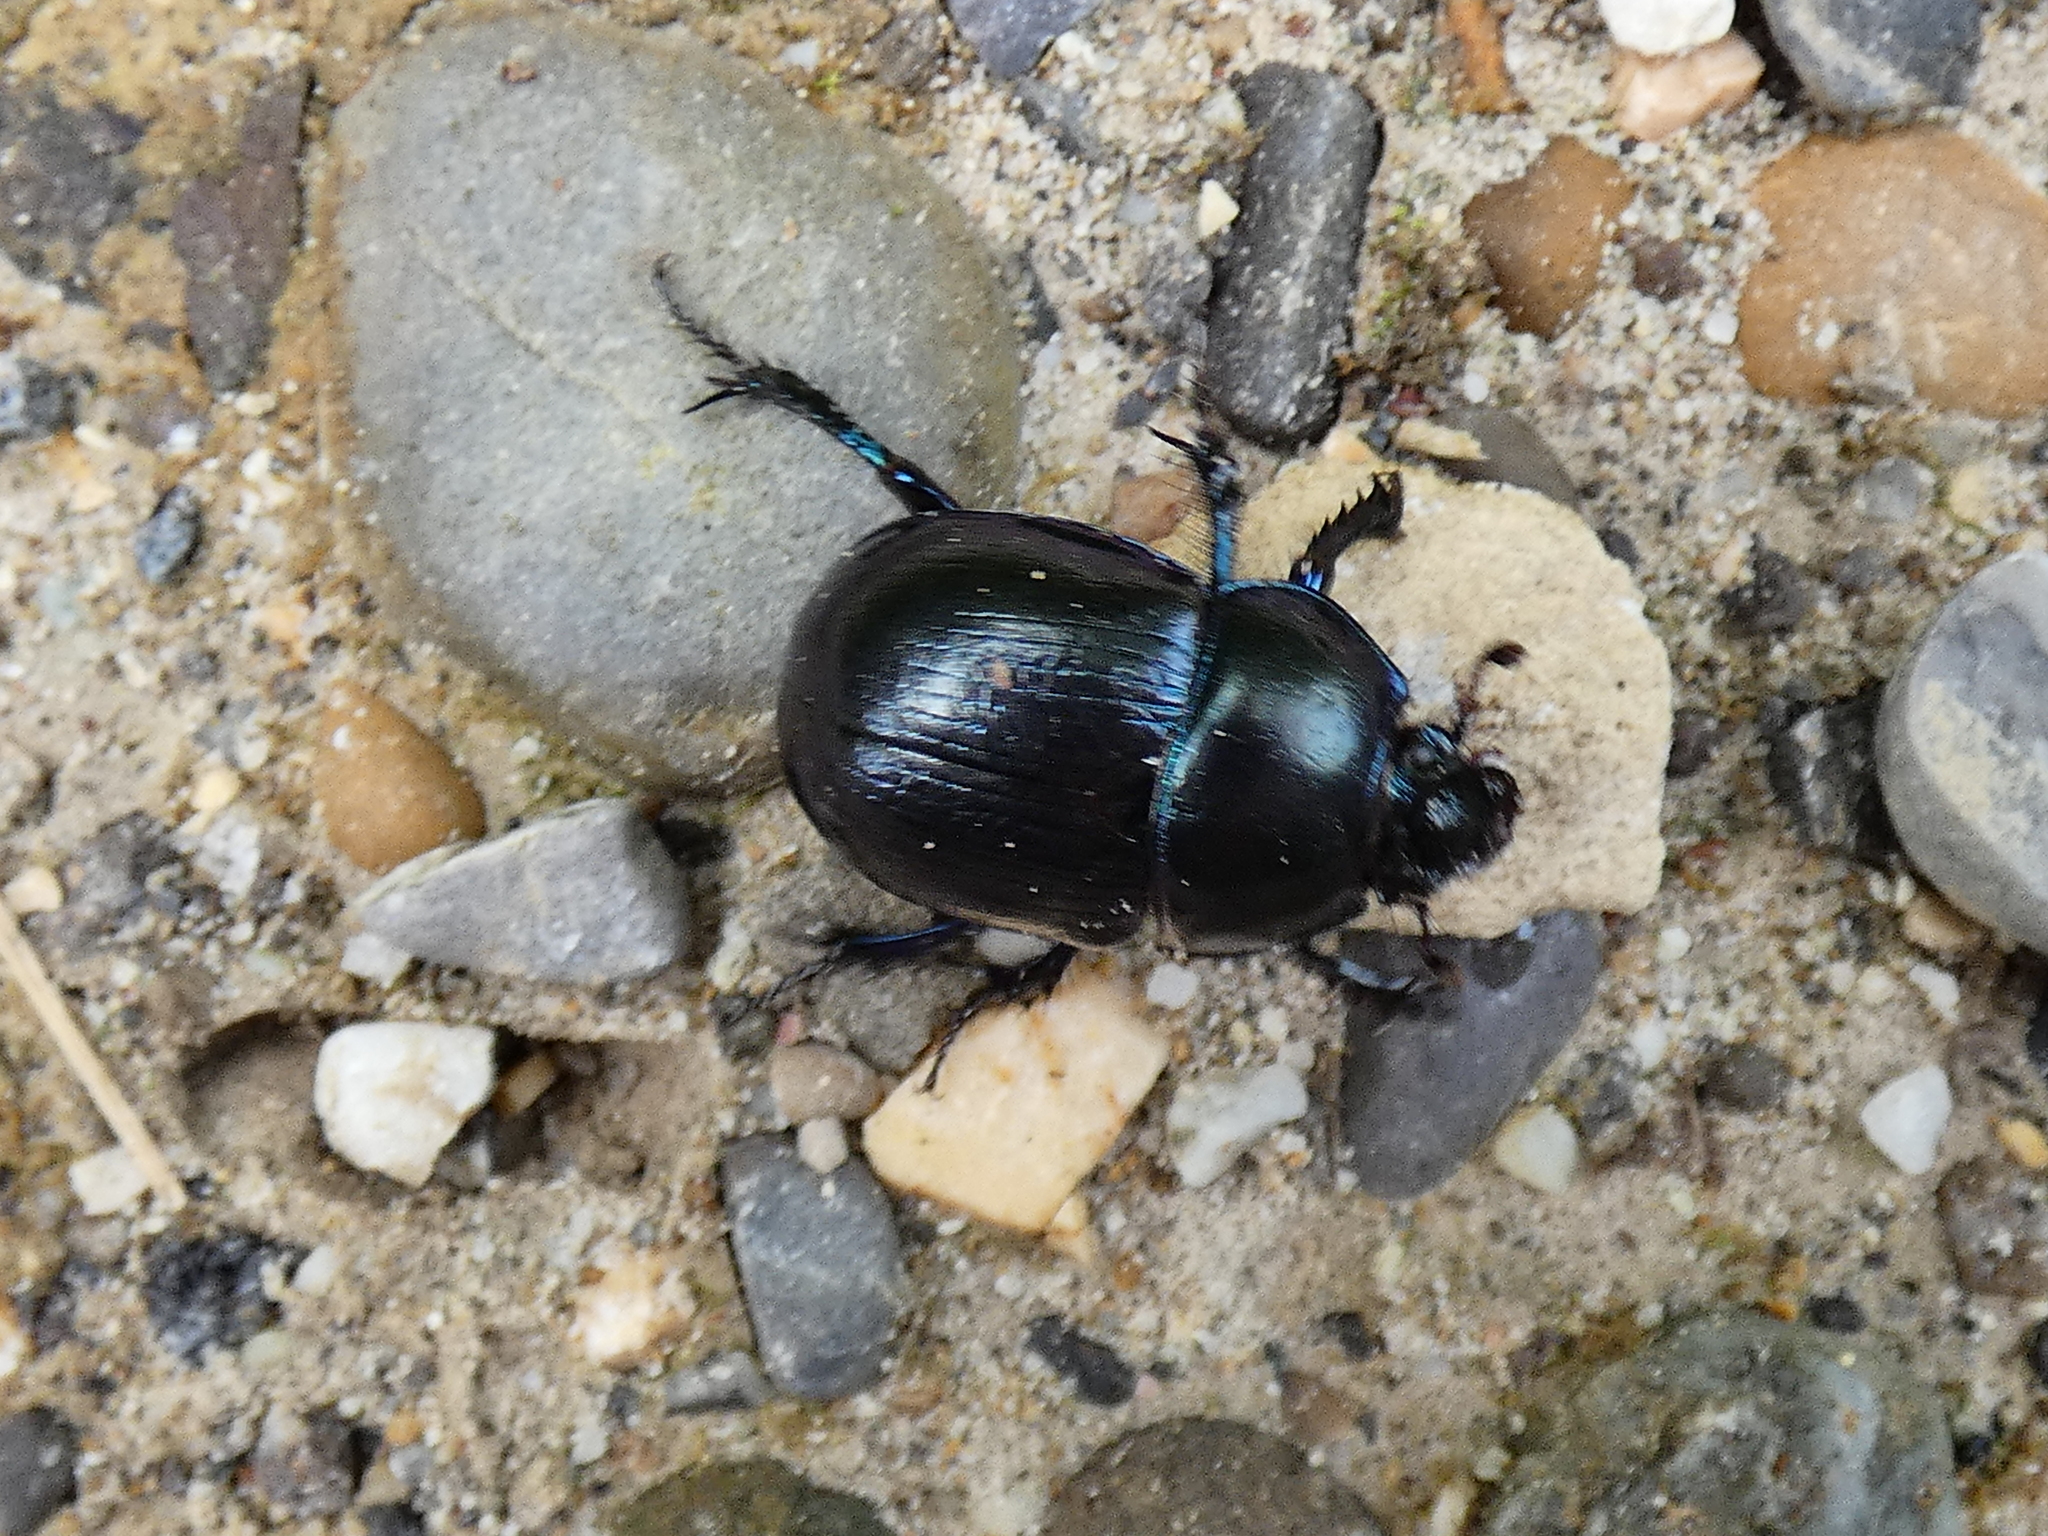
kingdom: Animalia
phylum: Arthropoda
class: Insecta
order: Coleoptera
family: Geotrupidae
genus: Anoplotrupes
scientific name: Anoplotrupes stercorosus
